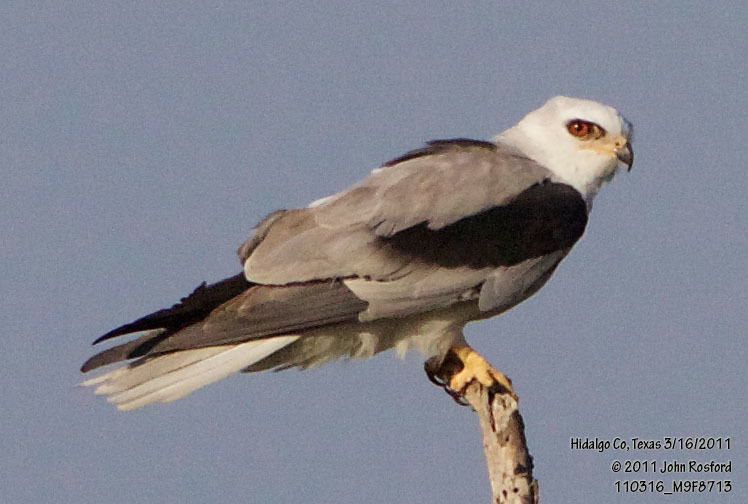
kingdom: Animalia
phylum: Chordata
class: Aves
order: Accipitriformes
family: Accipitridae
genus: Elanus
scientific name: Elanus leucurus
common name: White-tailed kite
